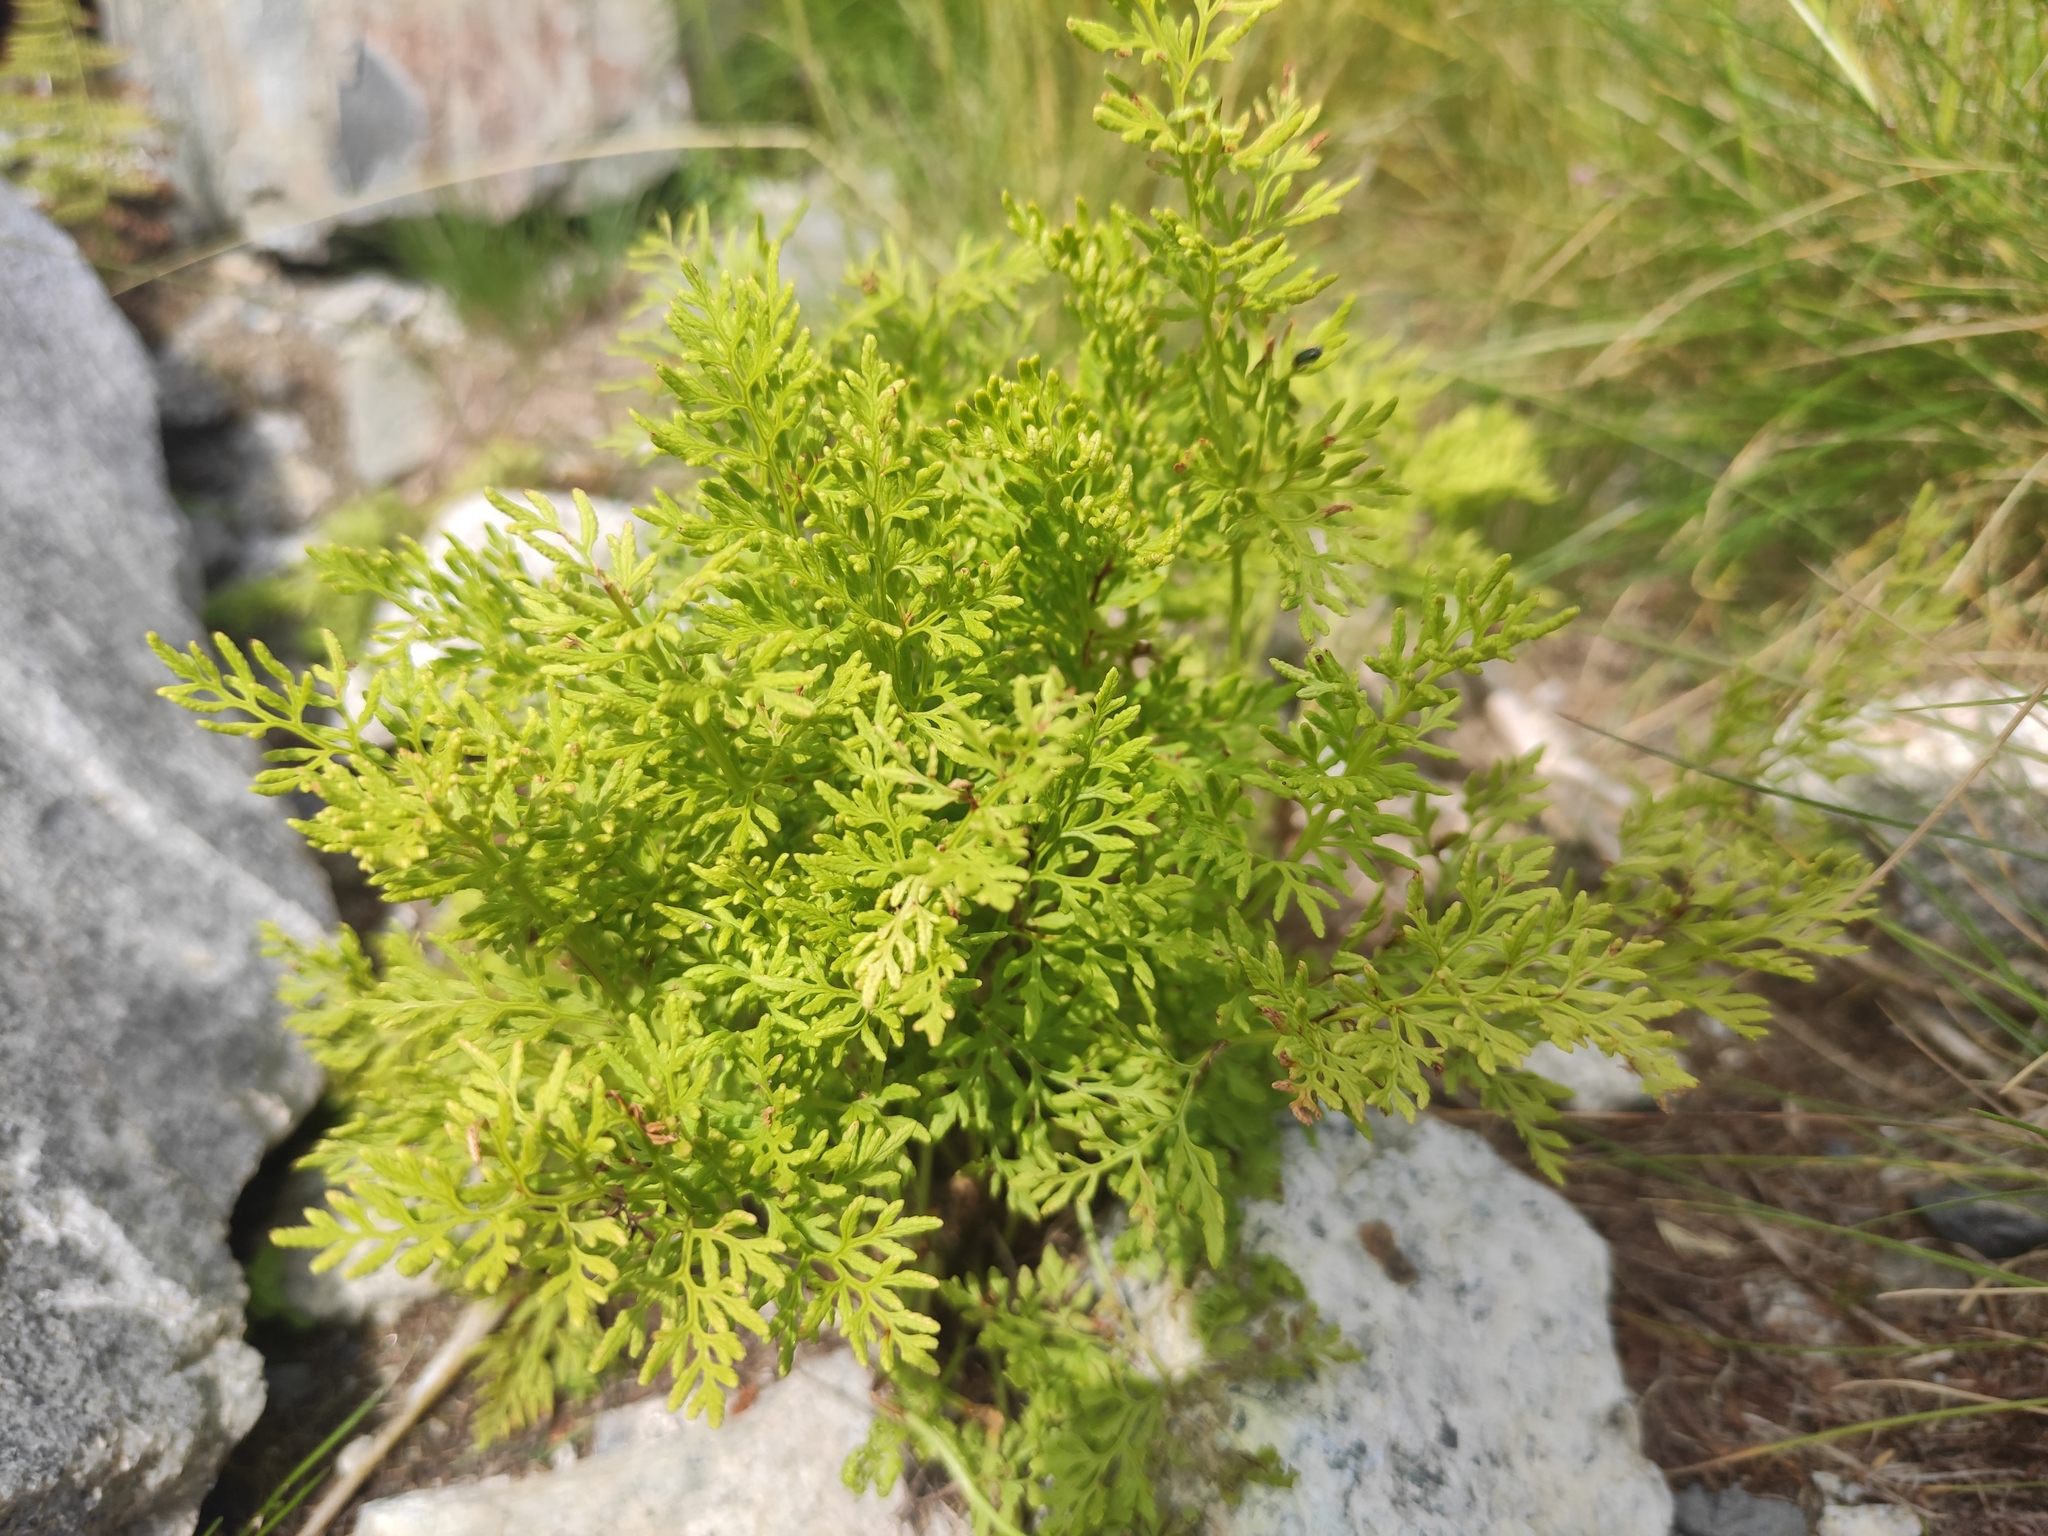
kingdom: Plantae
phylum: Tracheophyta
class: Polypodiopsida
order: Polypodiales
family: Pteridaceae
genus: Cryptogramma
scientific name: Cryptogramma crispa
